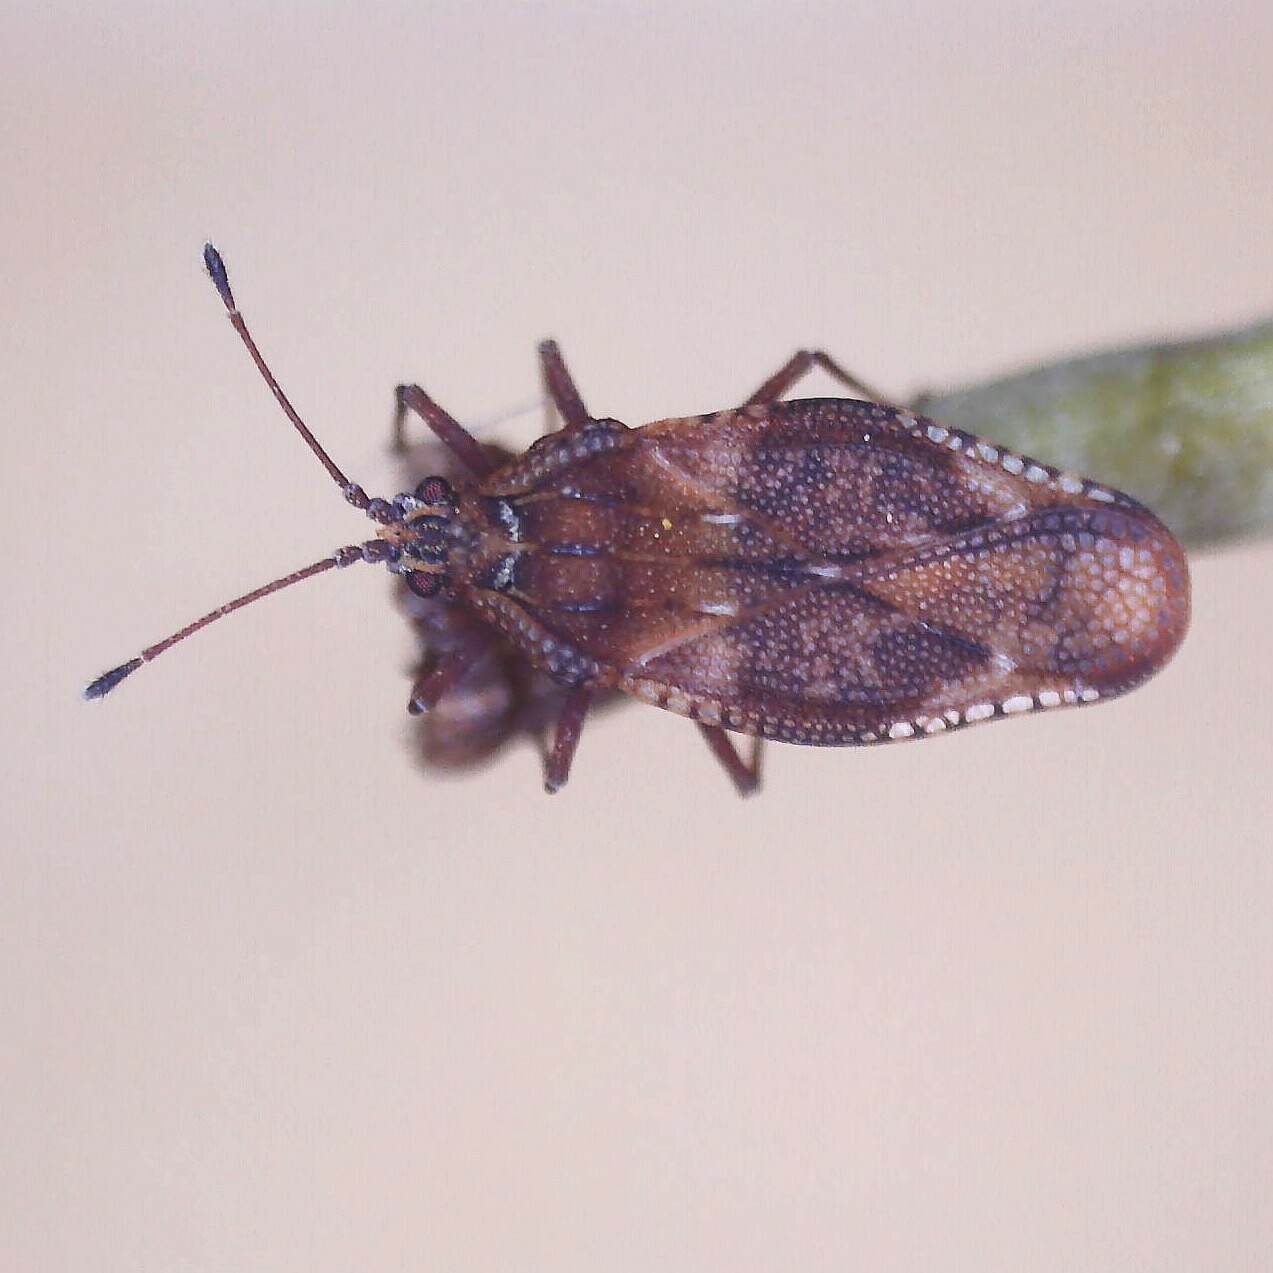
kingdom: Animalia
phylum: Arthropoda
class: Insecta
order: Hemiptera
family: Tingidae
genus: Physatocheila
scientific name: Physatocheila dumetorum
